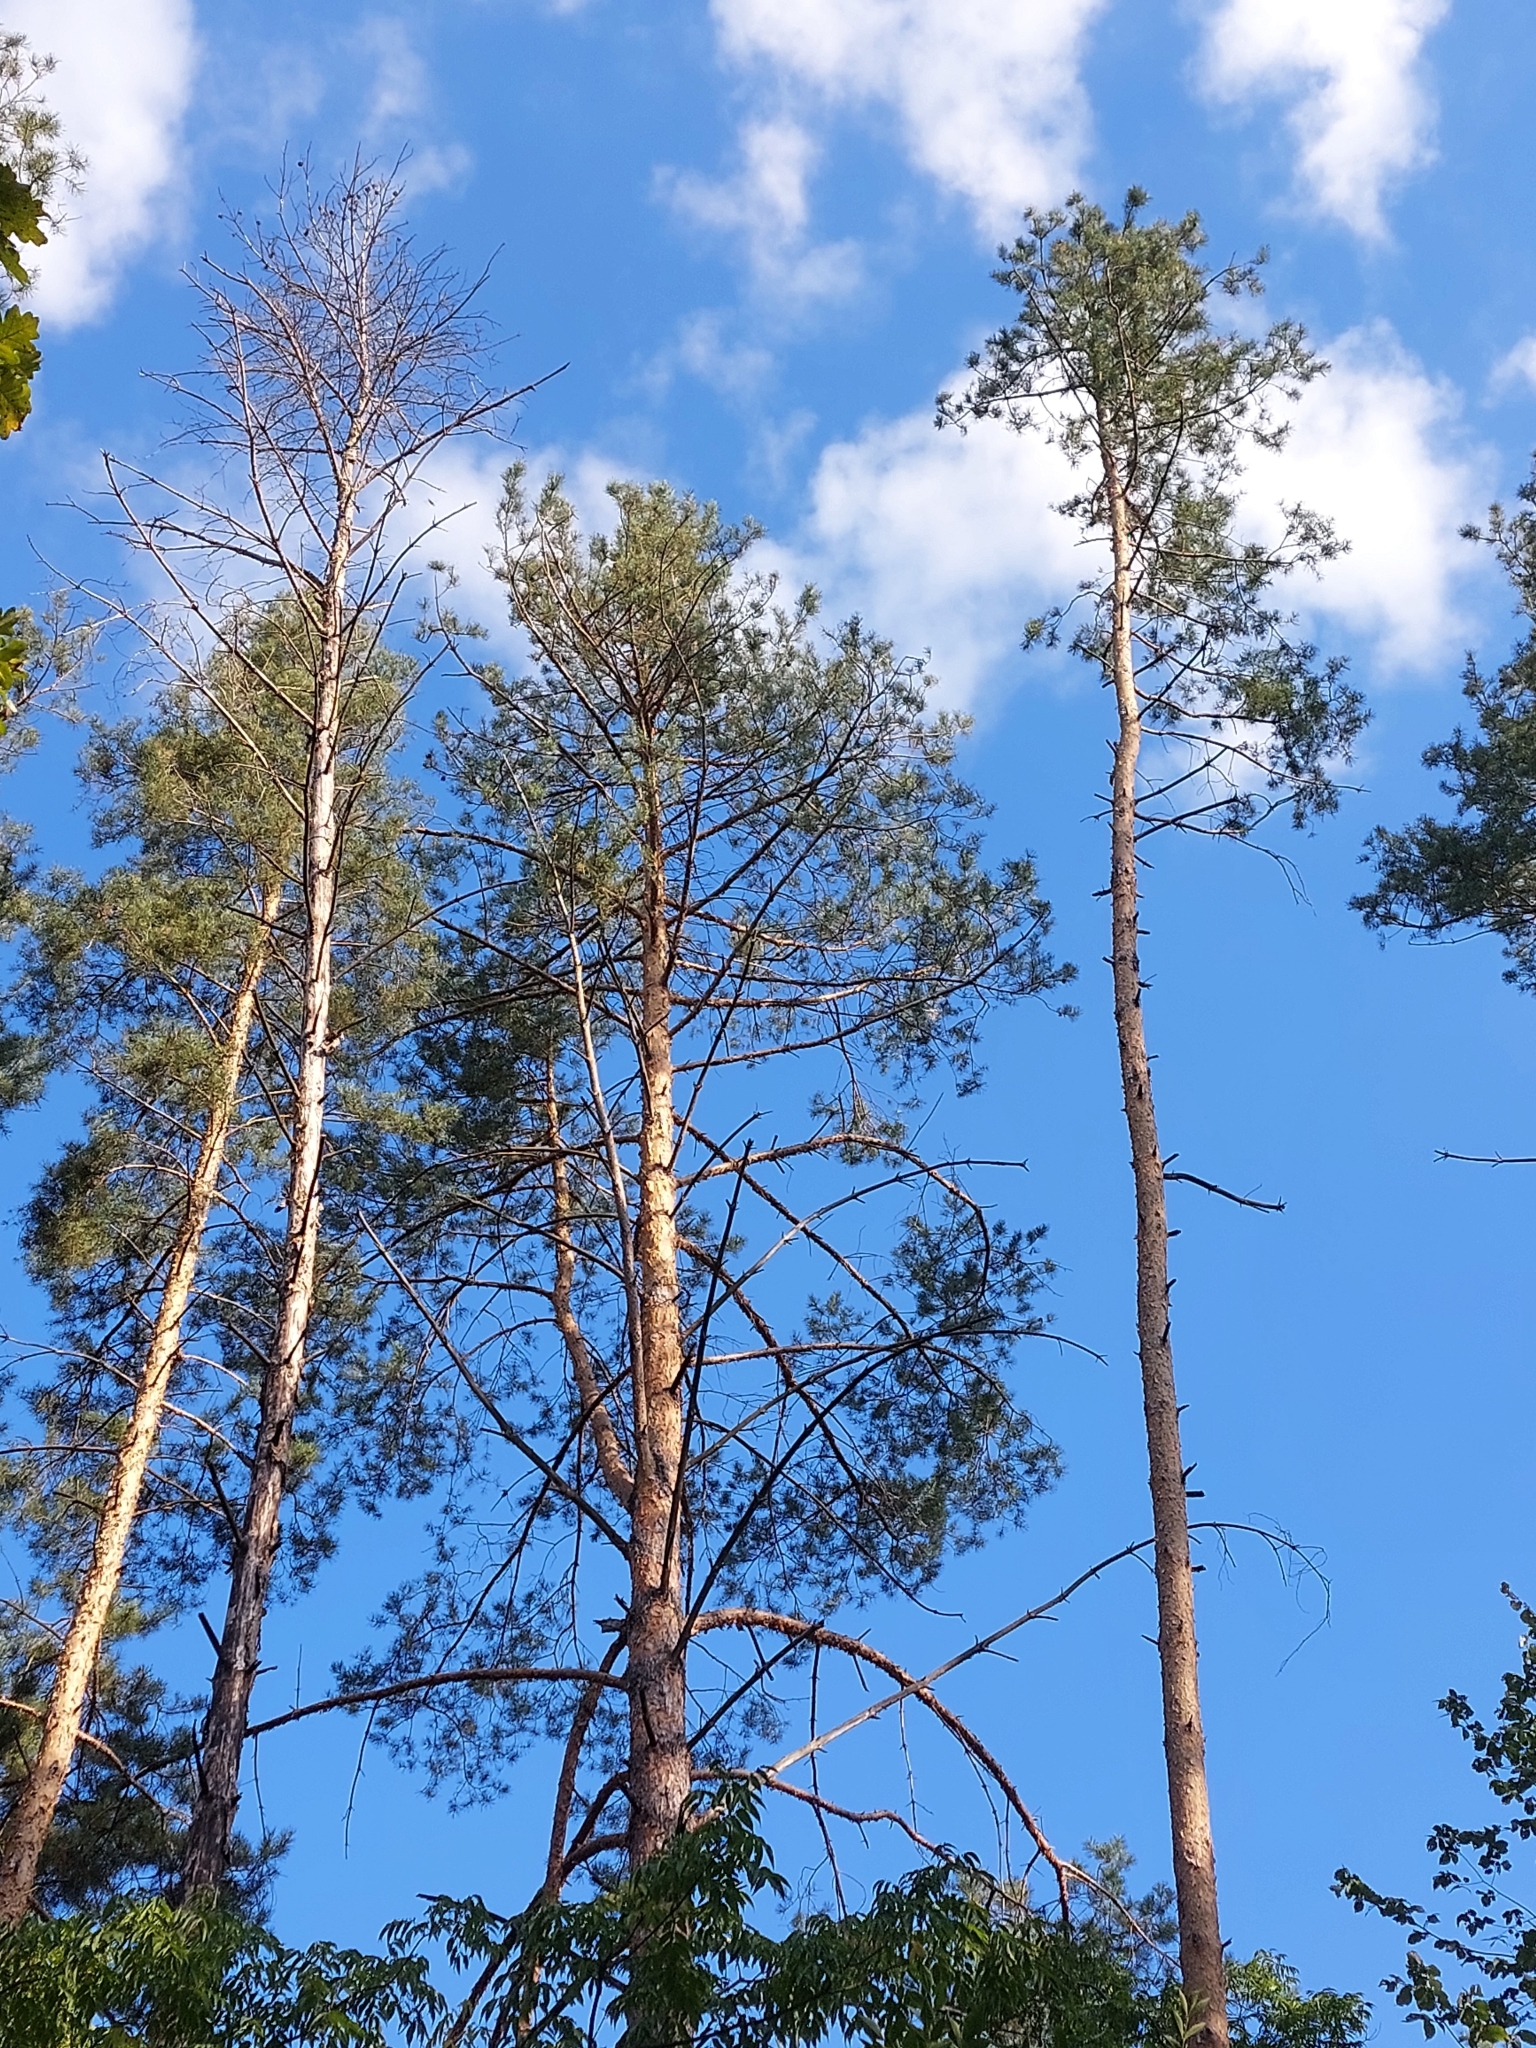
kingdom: Plantae
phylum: Tracheophyta
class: Pinopsida
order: Pinales
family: Pinaceae
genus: Pinus
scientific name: Pinus sylvestris
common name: Scots pine
